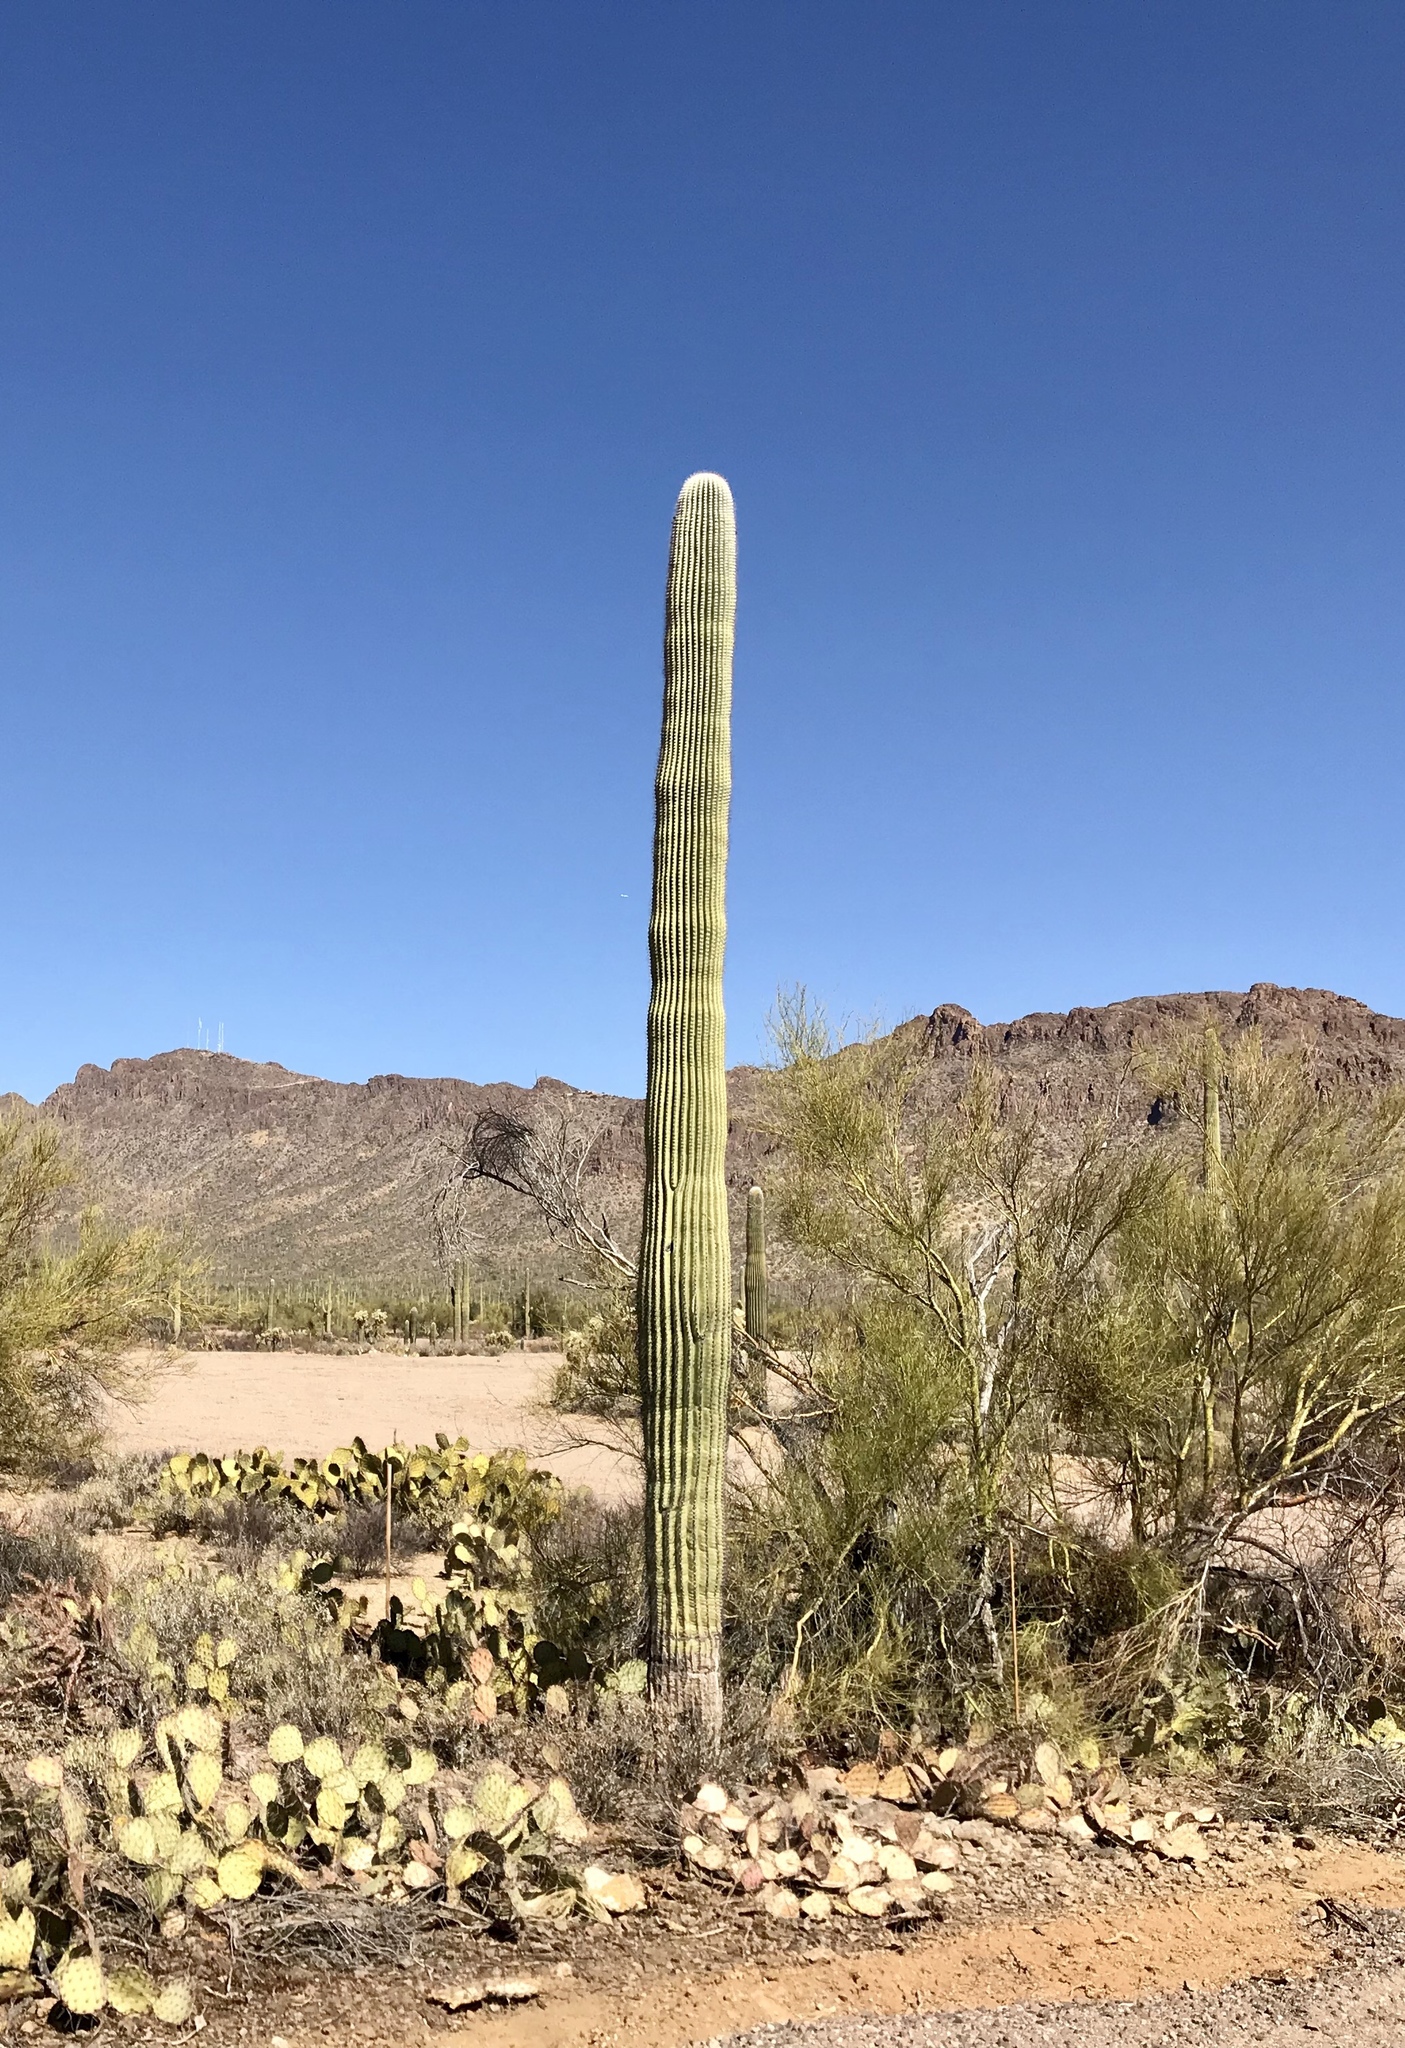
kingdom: Plantae
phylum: Tracheophyta
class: Magnoliopsida
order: Caryophyllales
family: Cactaceae
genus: Carnegiea
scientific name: Carnegiea gigantea
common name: Saguaro
